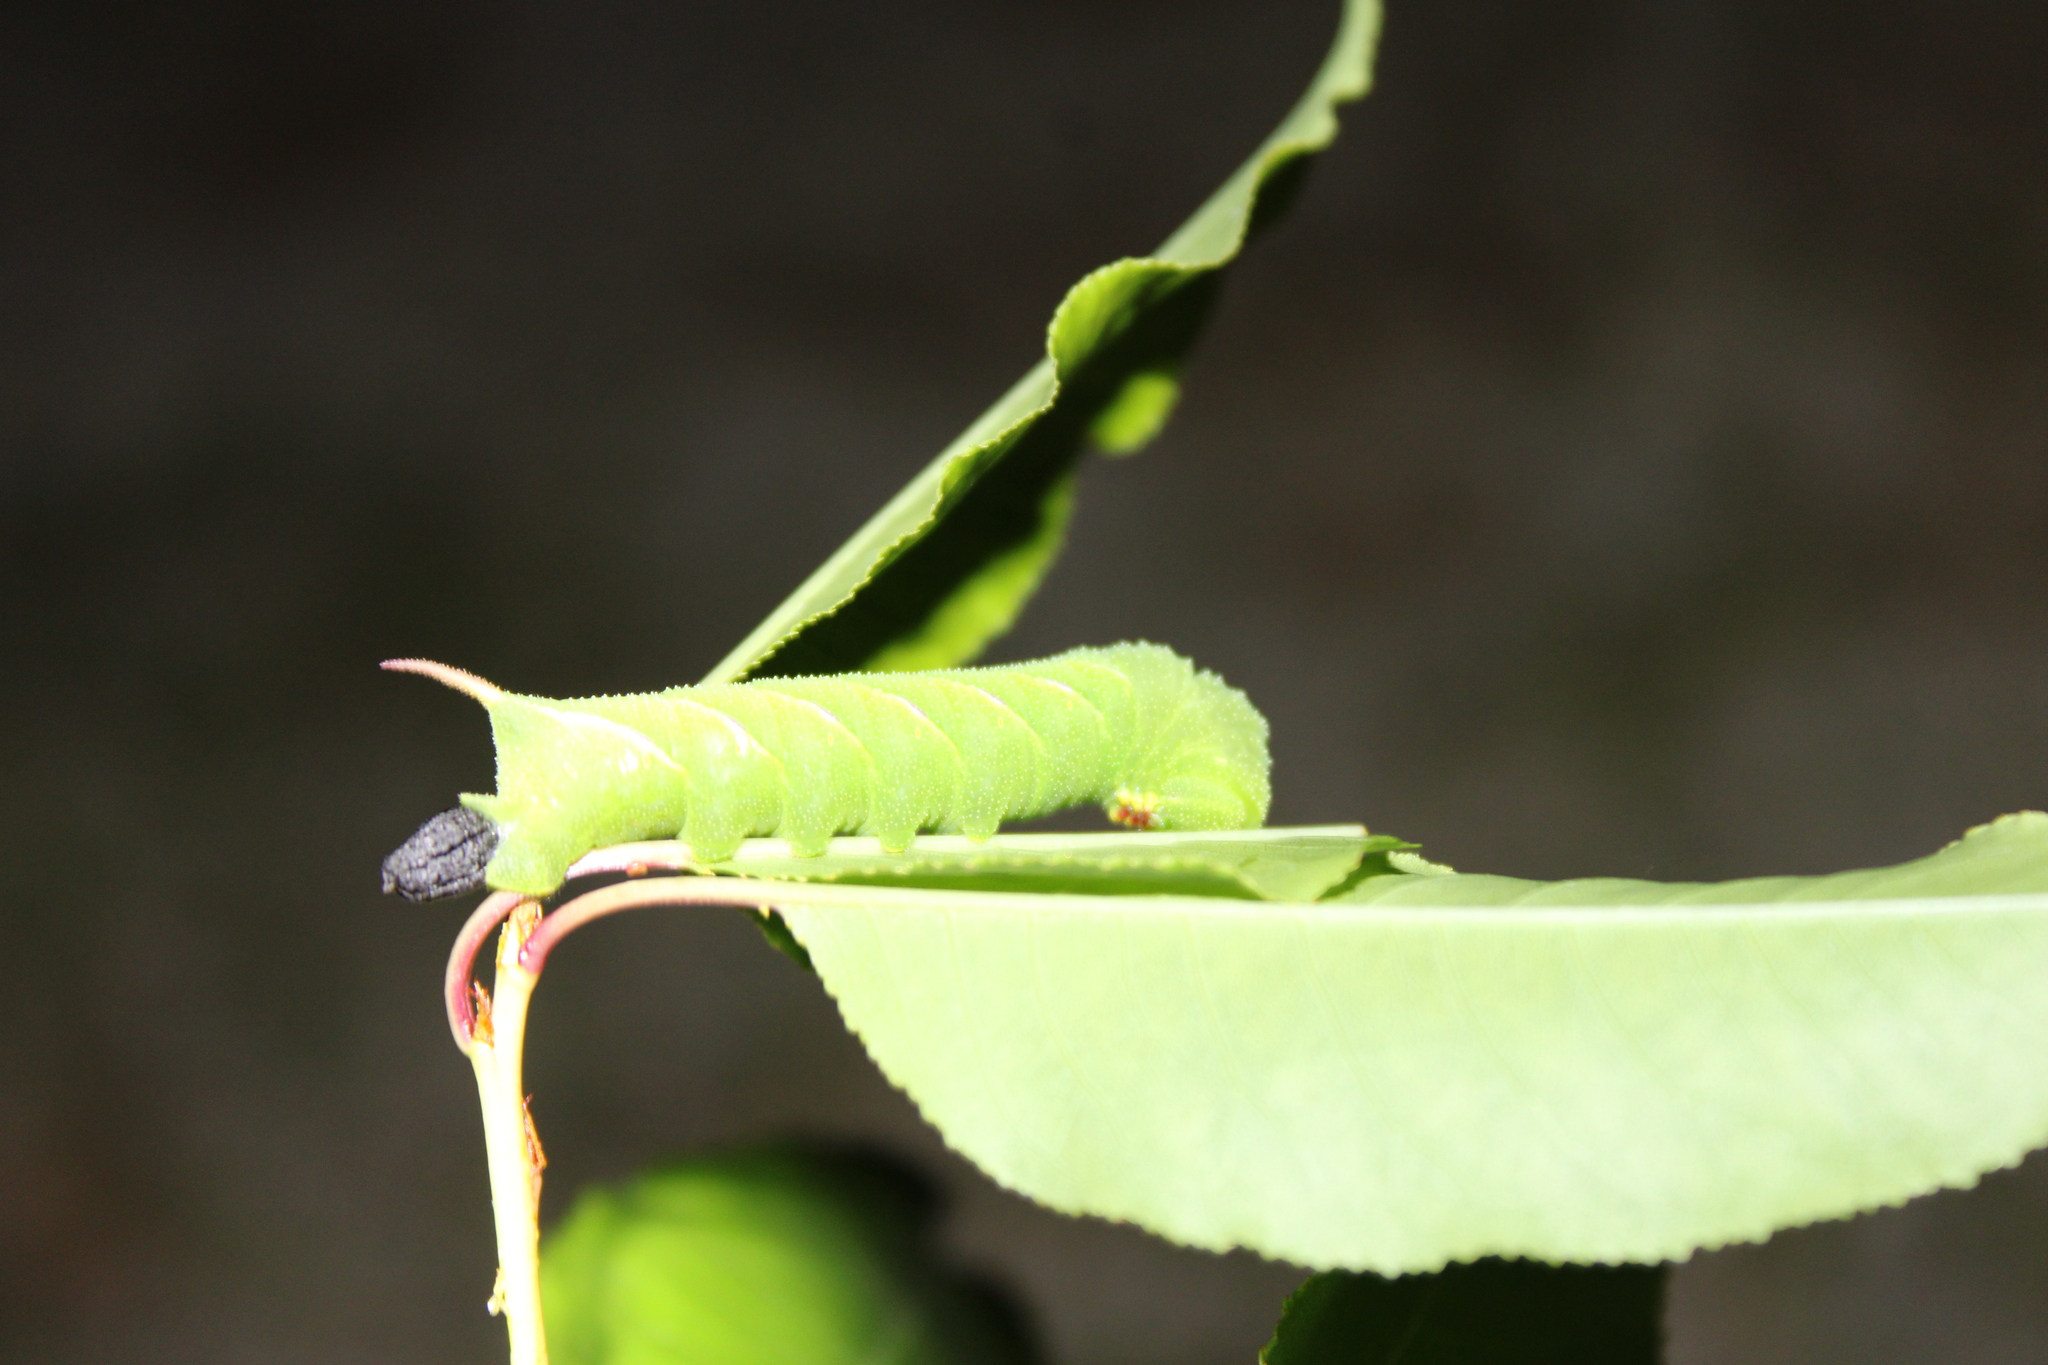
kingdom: Animalia
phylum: Arthropoda
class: Insecta
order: Lepidoptera
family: Sphingidae
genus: Sphinx
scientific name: Sphinx drupiferarum
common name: Wild cherry sphinx
